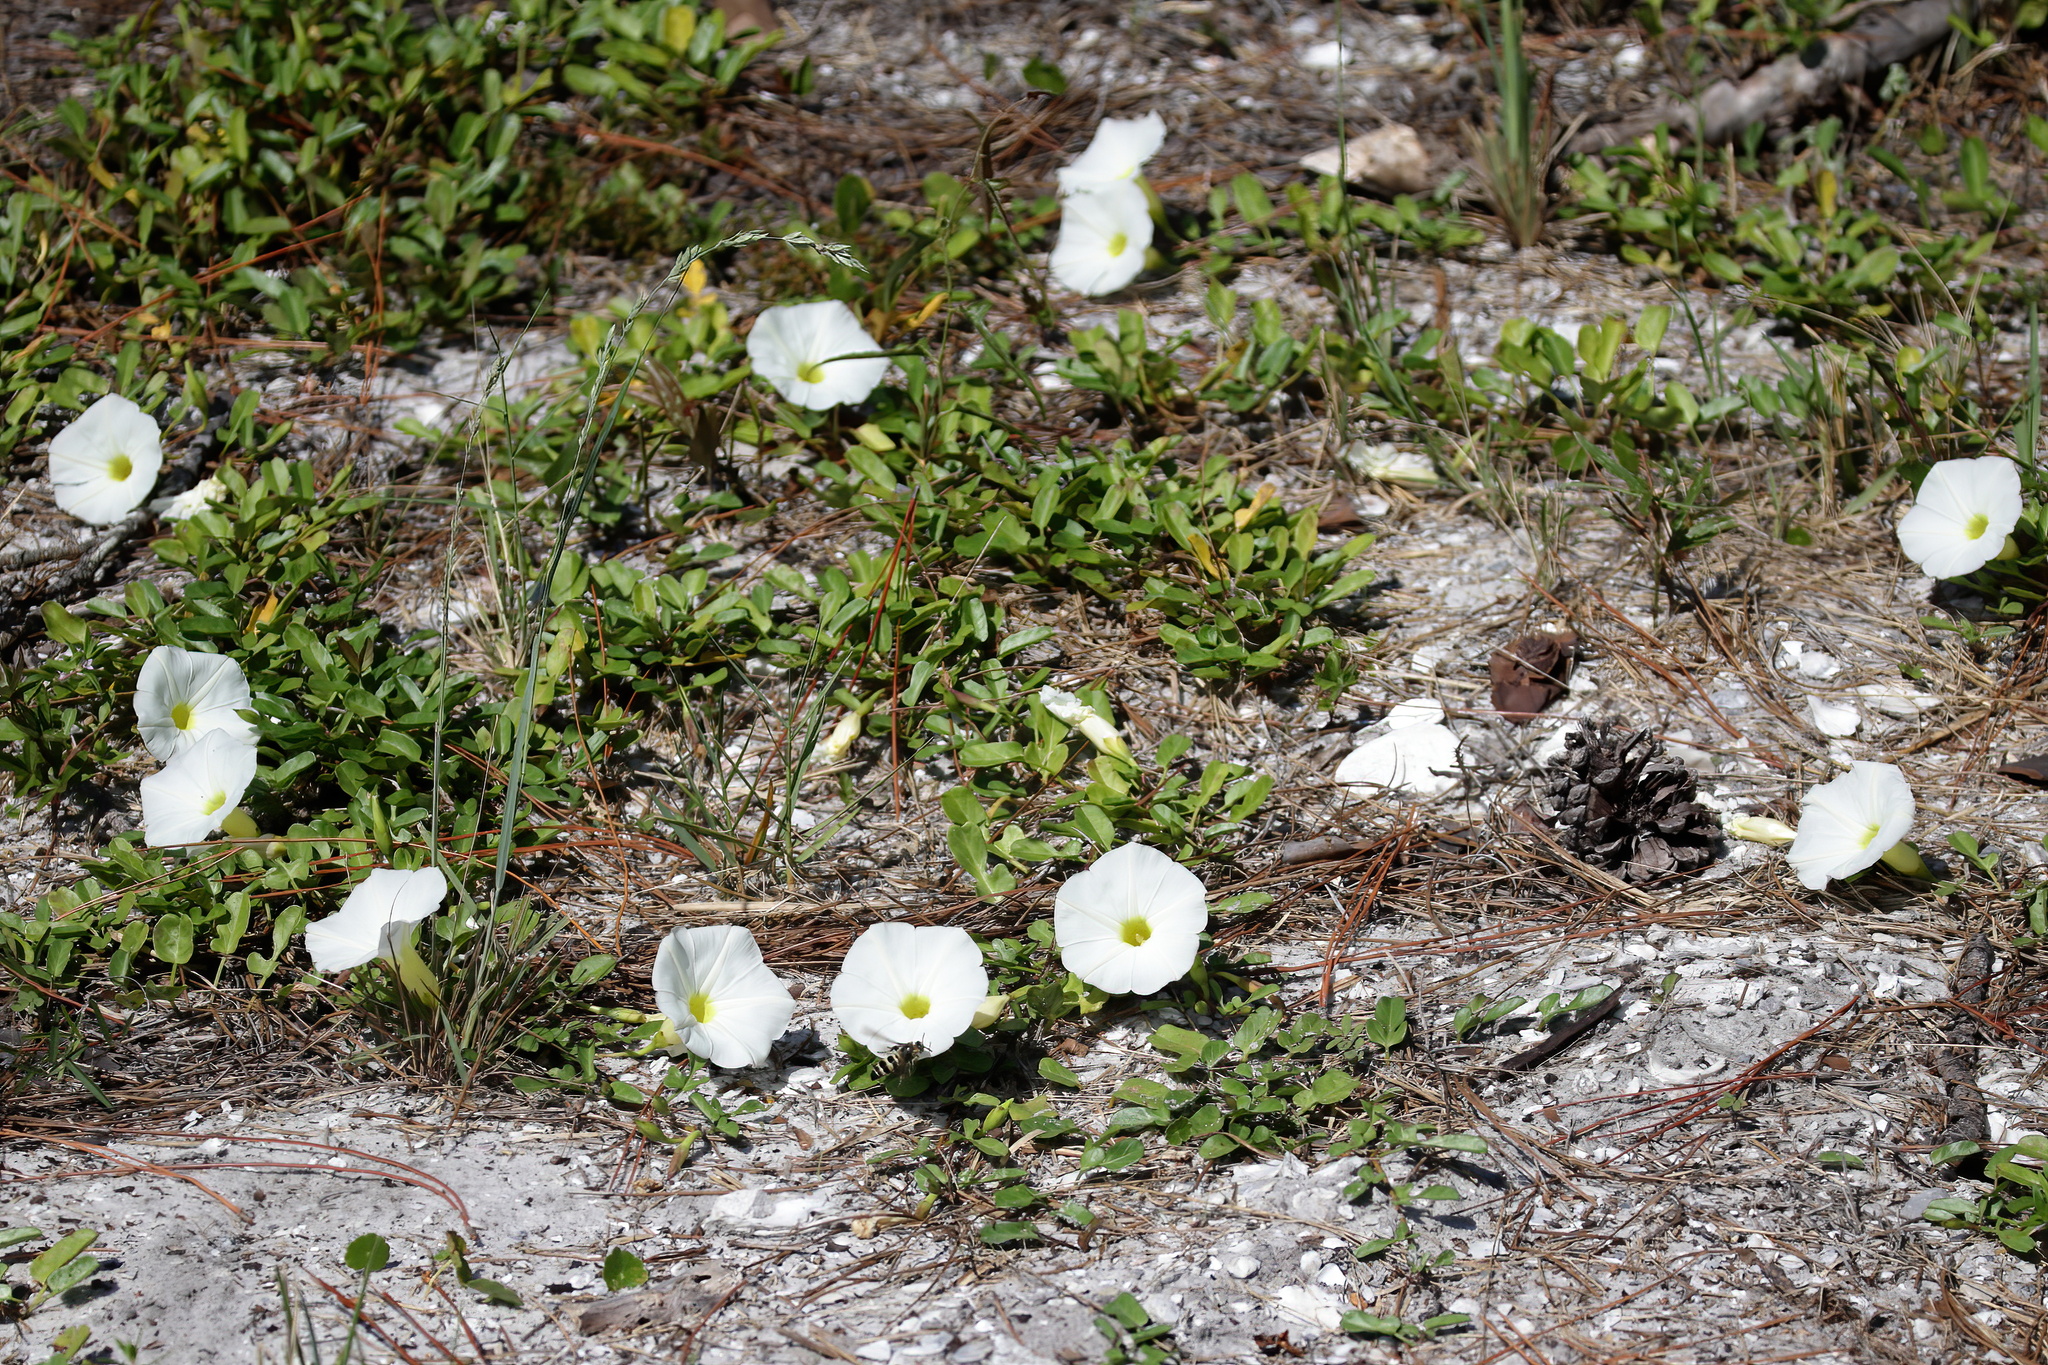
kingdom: Plantae
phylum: Tracheophyta
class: Magnoliopsida
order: Solanales
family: Convolvulaceae
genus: Ipomoea
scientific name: Ipomoea imperati
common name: Fiddle-leaf morning-glory
